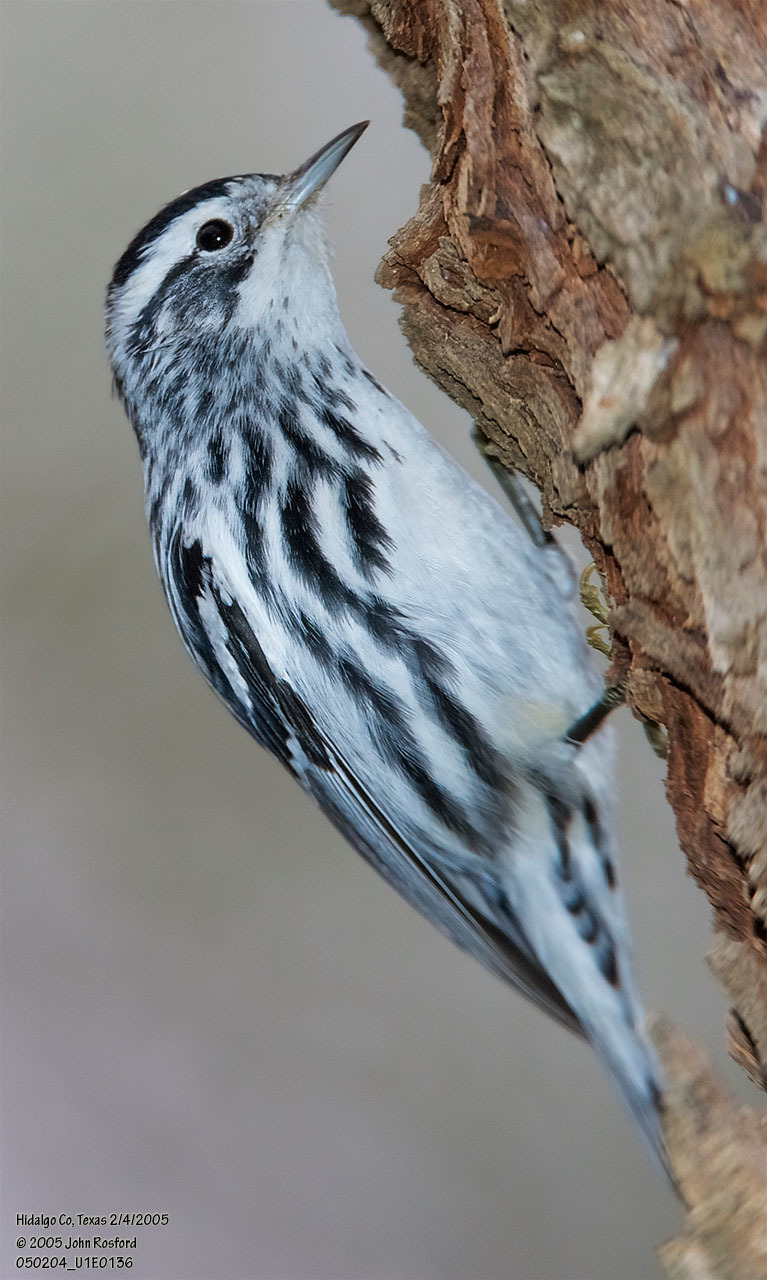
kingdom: Animalia
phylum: Chordata
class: Aves
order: Passeriformes
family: Parulidae
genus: Mniotilta
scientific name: Mniotilta varia
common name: Black-and-white warbler
